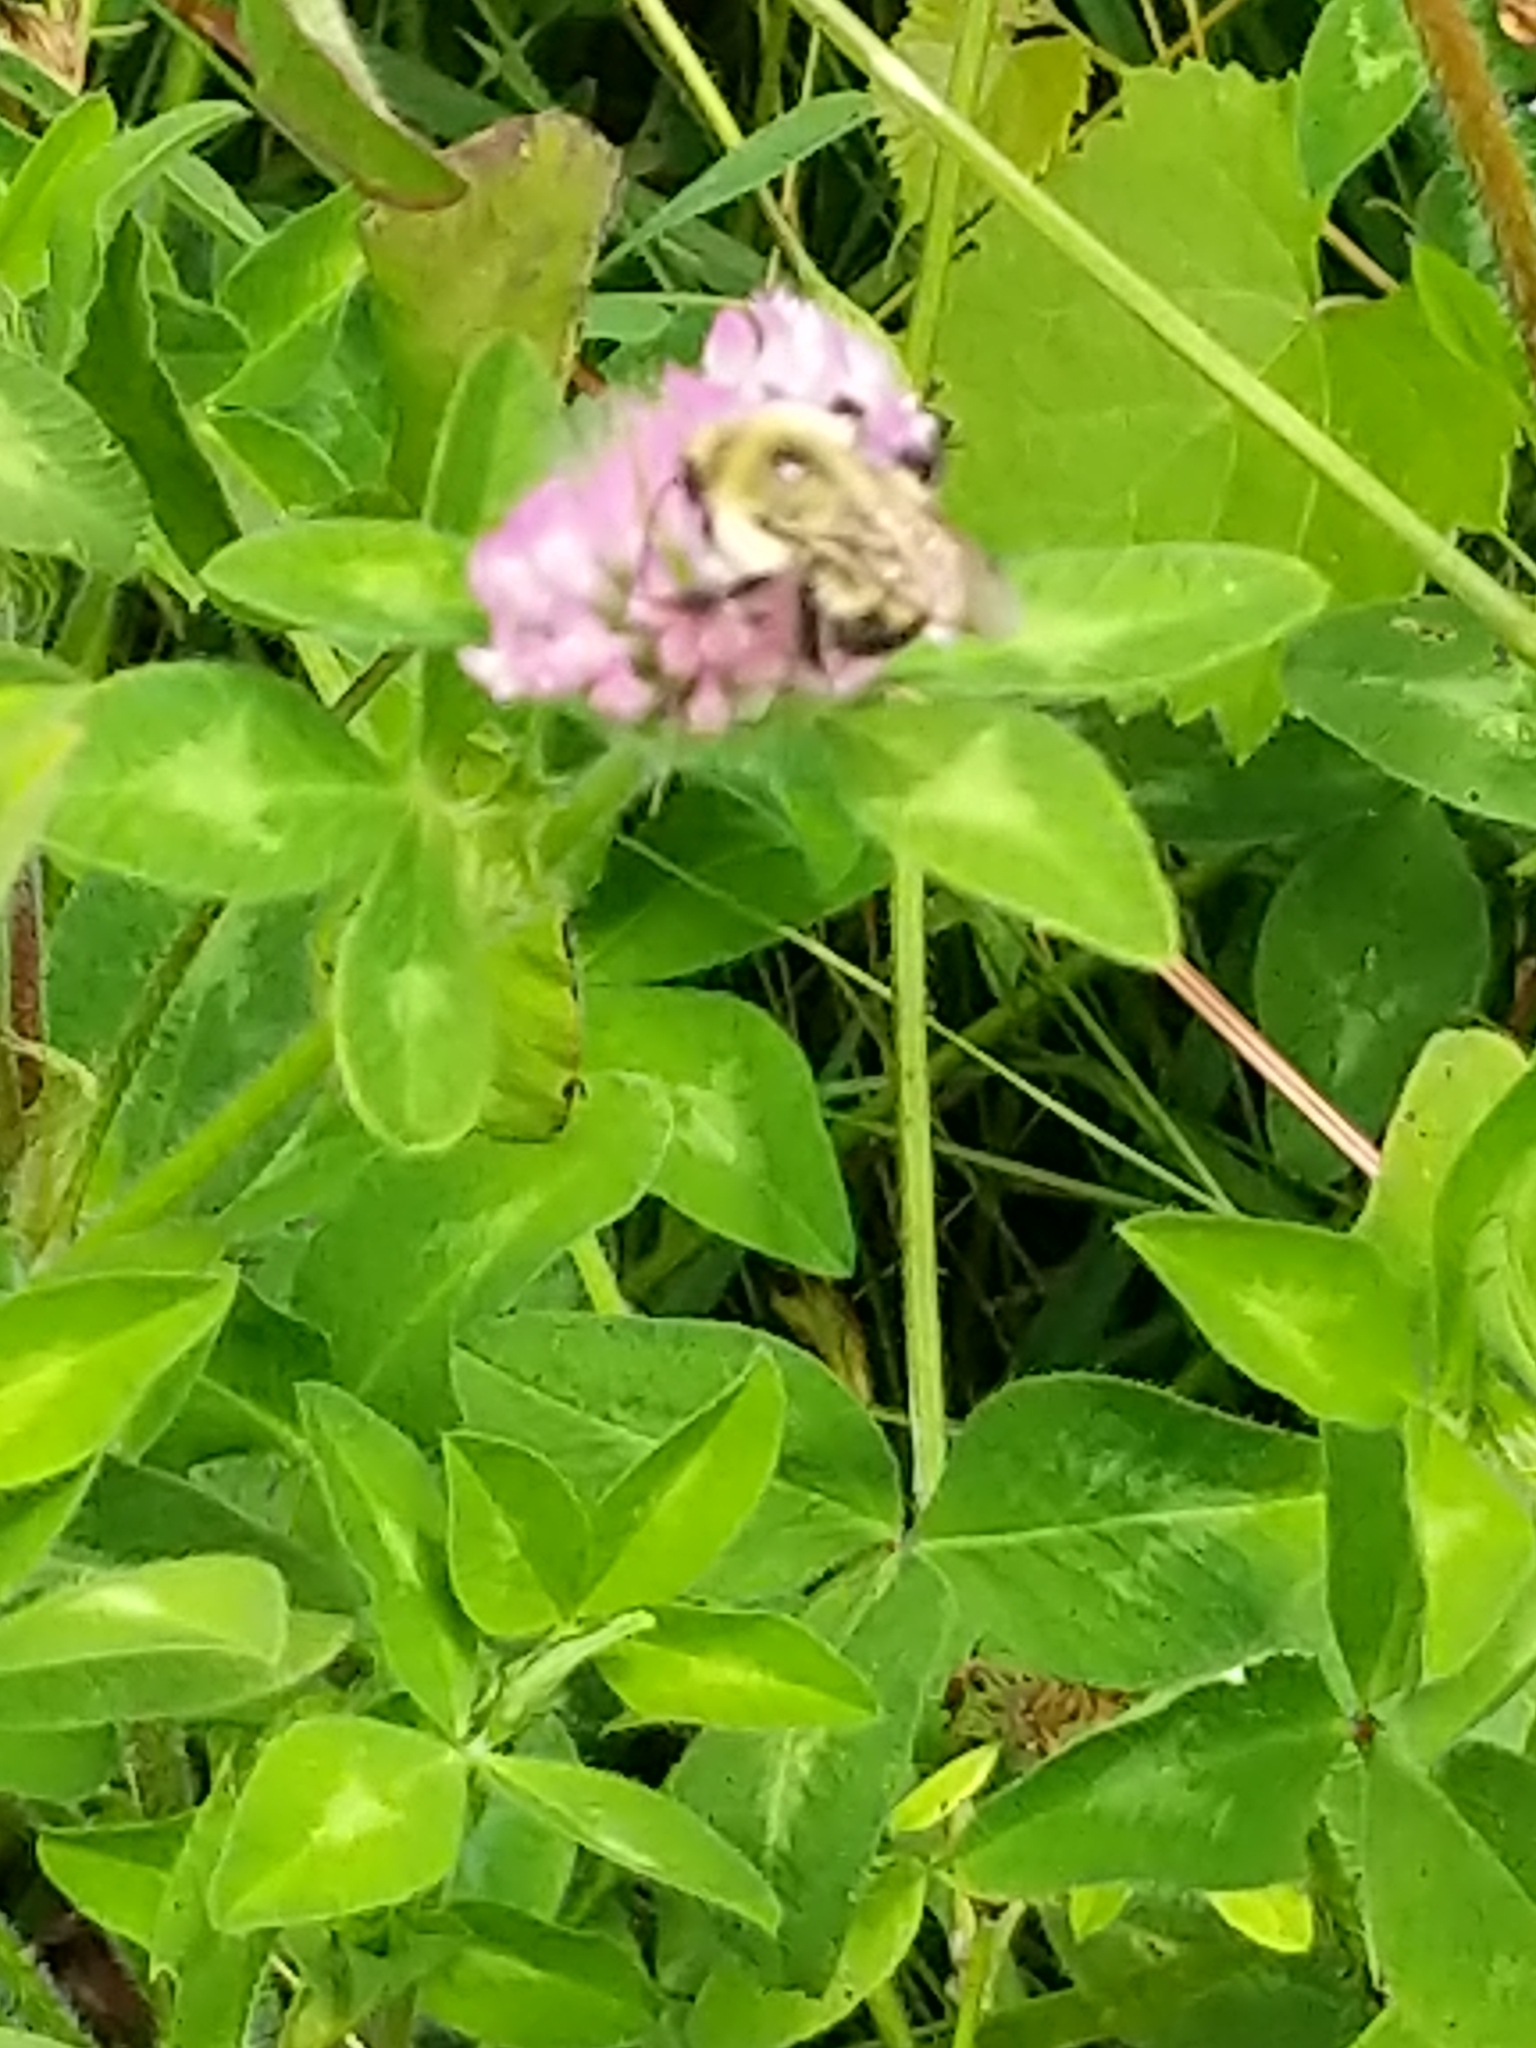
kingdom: Animalia
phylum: Arthropoda
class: Insecta
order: Hymenoptera
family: Apidae
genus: Bombus
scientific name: Bombus bimaculatus
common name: Two-spotted bumble bee
